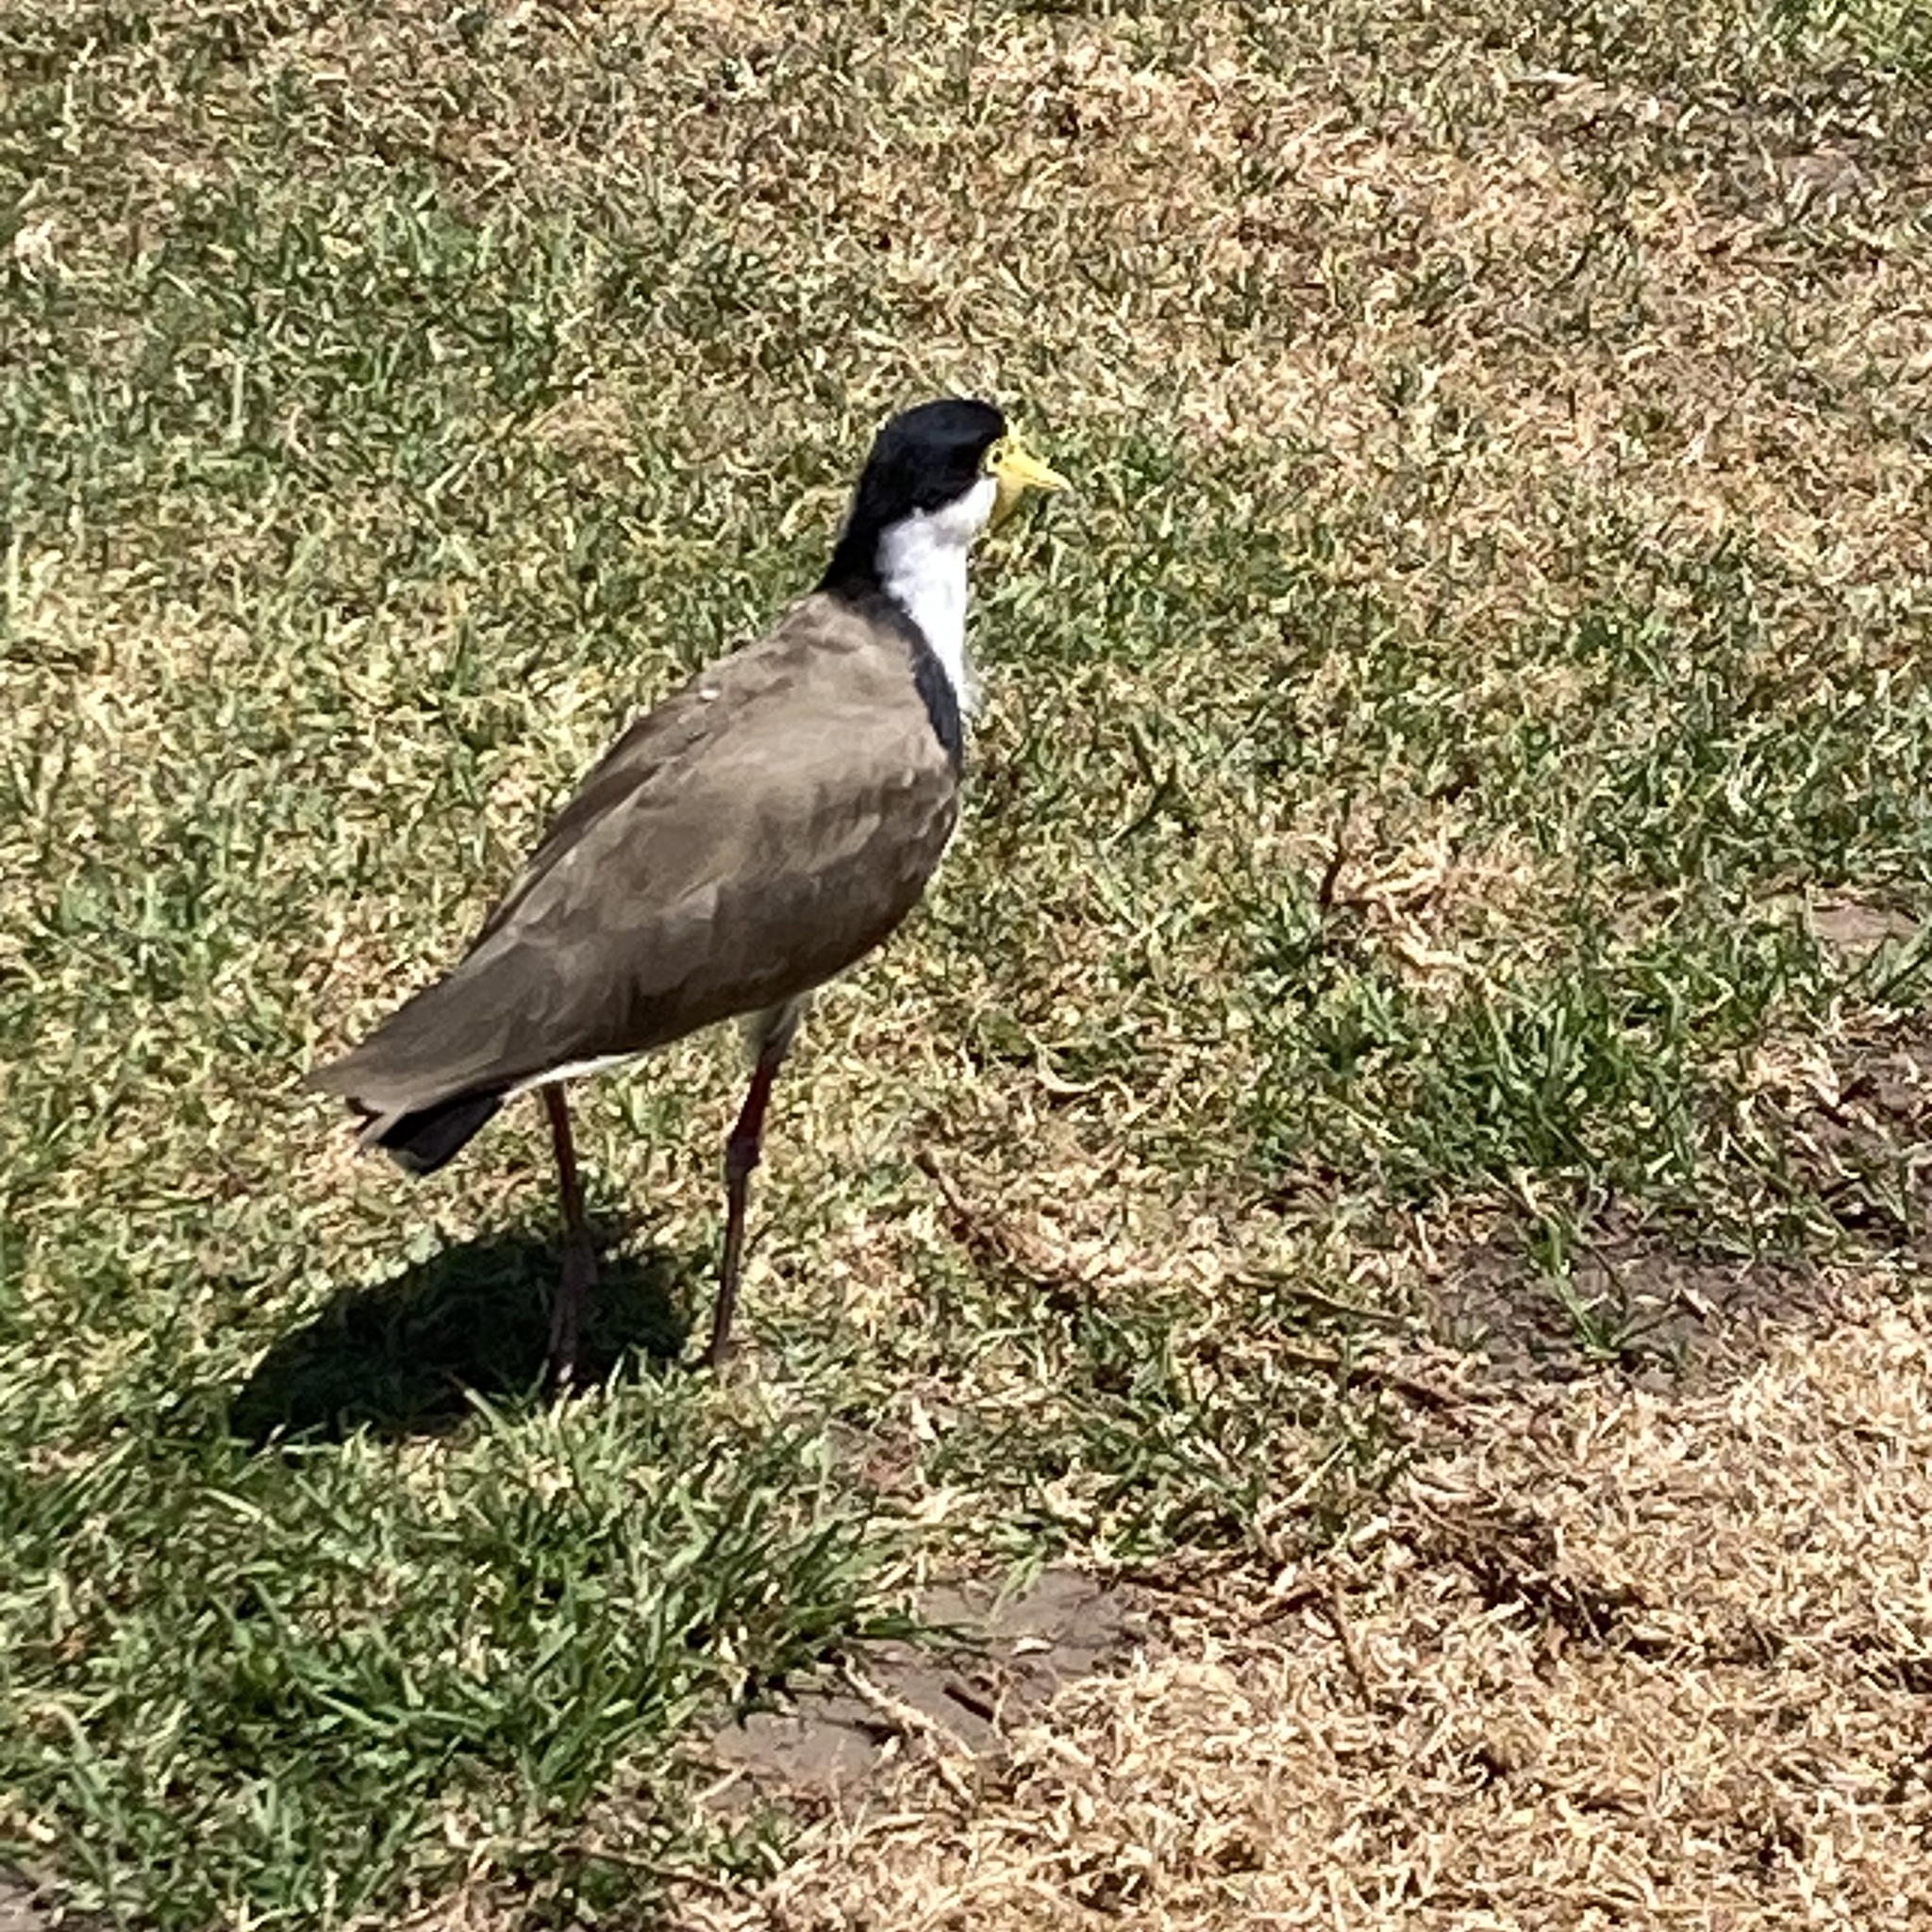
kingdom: Animalia
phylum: Chordata
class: Aves
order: Charadriiformes
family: Charadriidae
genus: Vanellus
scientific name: Vanellus miles
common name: Masked lapwing
